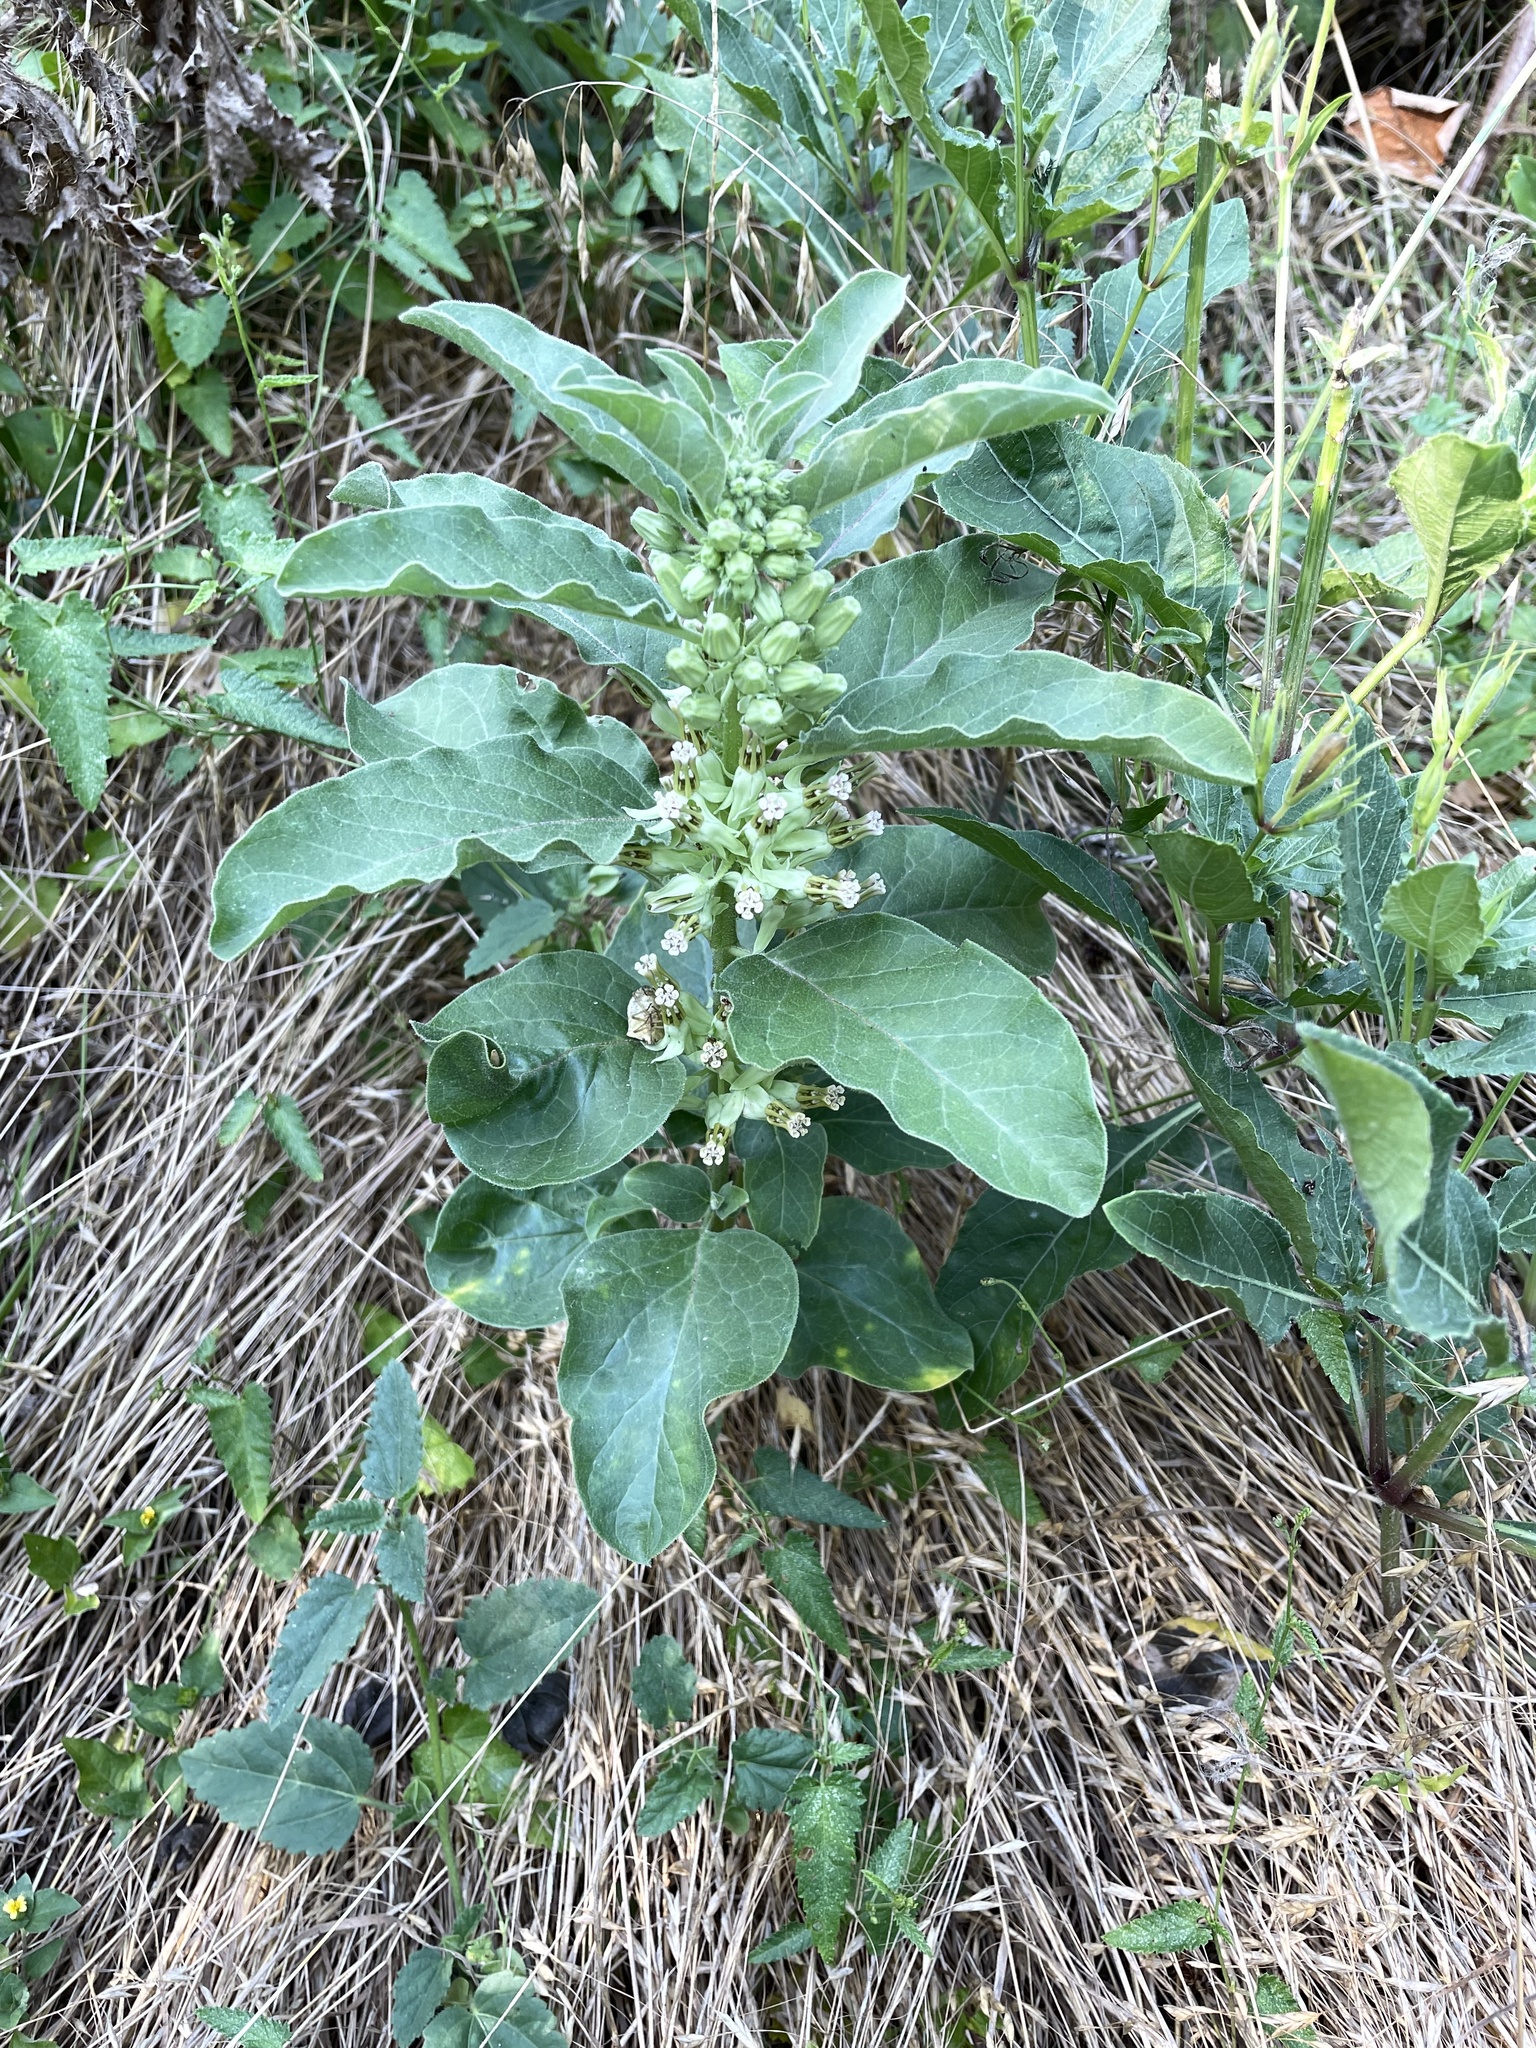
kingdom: Plantae
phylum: Tracheophyta
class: Magnoliopsida
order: Gentianales
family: Apocynaceae
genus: Asclepias
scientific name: Asclepias oenotheroides
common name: Zizotes milkweed
